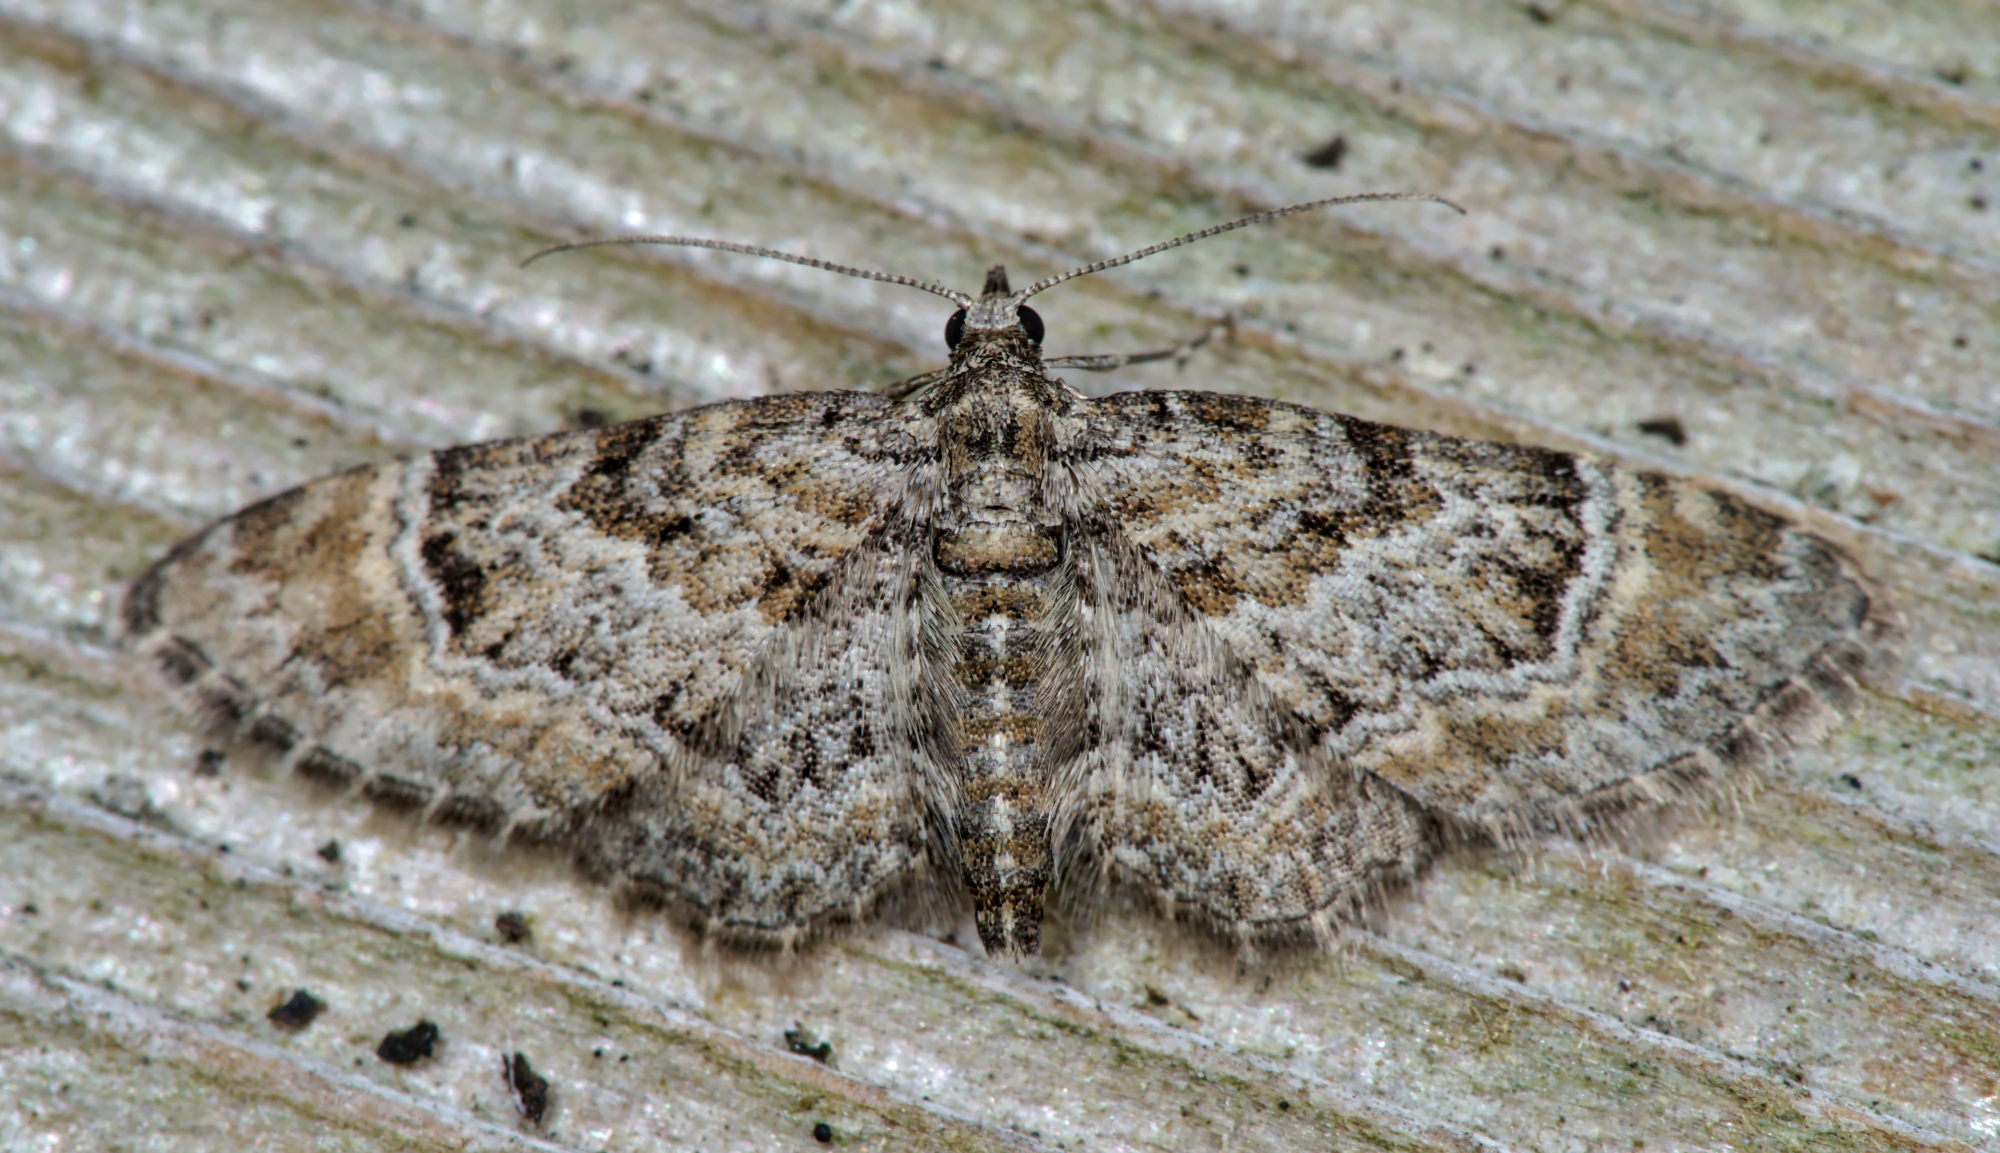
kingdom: Animalia
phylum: Arthropoda
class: Insecta
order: Lepidoptera
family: Geometridae
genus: Gymnoscelis
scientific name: Gymnoscelis rufifasciata
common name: Double-striped pug
